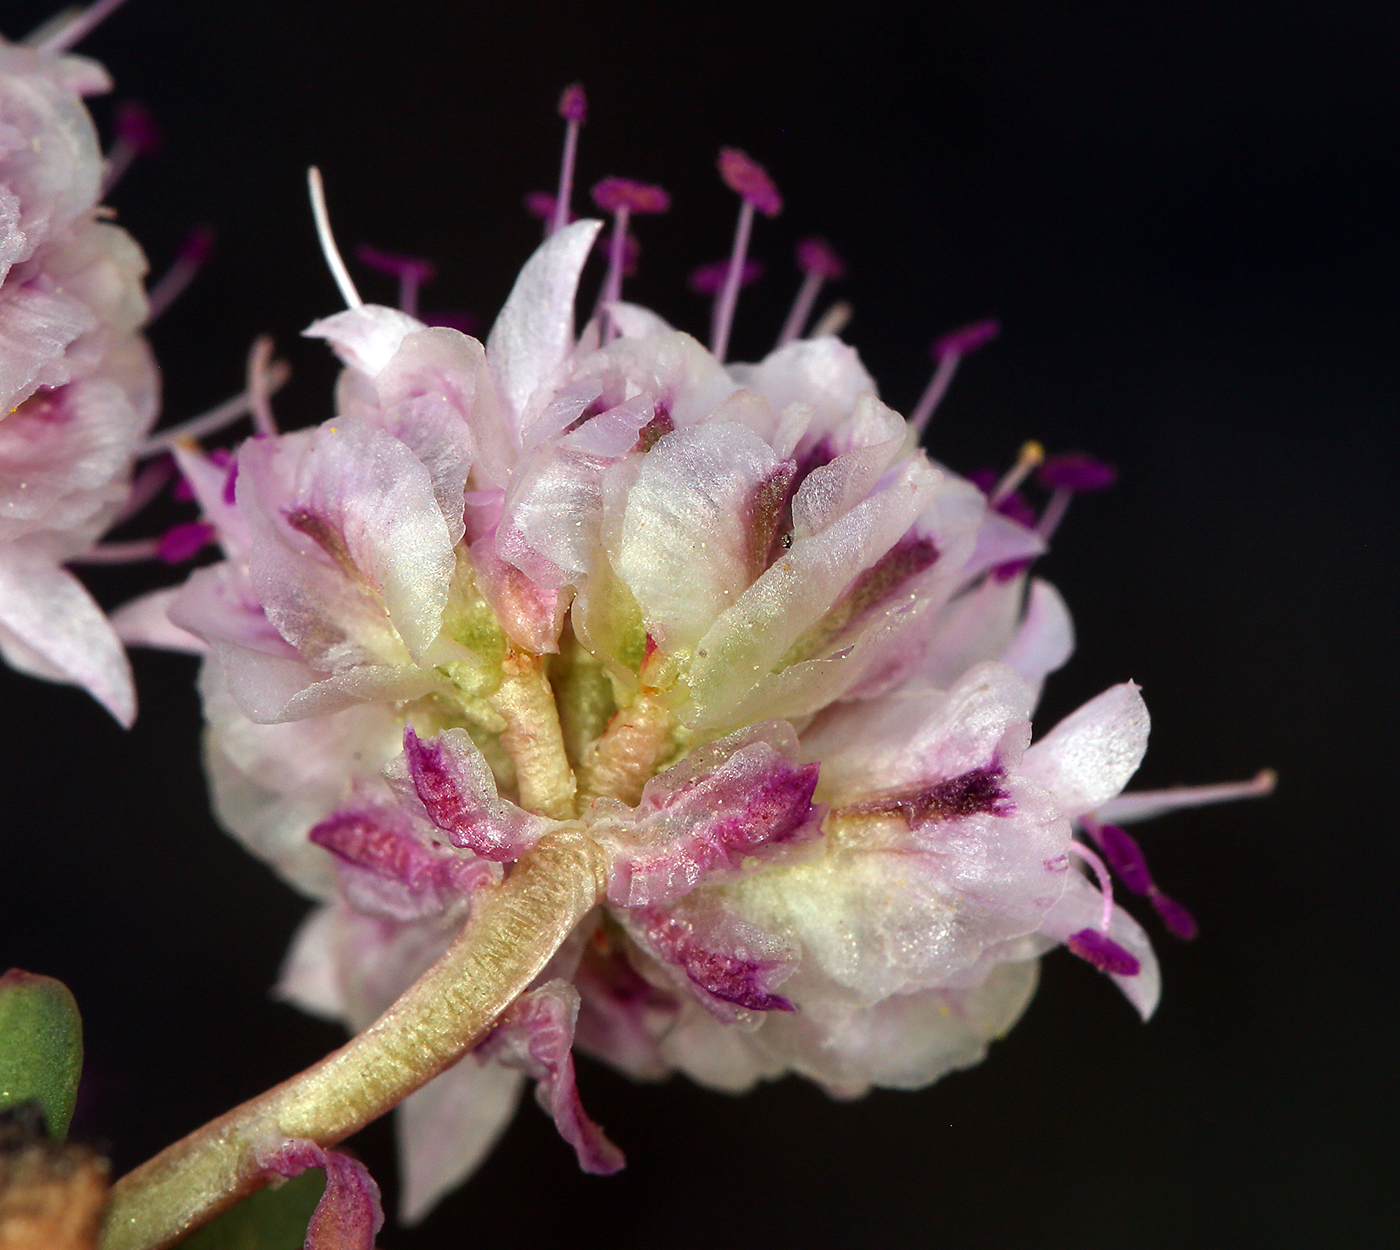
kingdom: Plantae
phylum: Tracheophyta
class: Magnoliopsida
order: Caryophyllales
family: Montiaceae
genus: Calyptridium
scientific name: Calyptridium umbellatum
